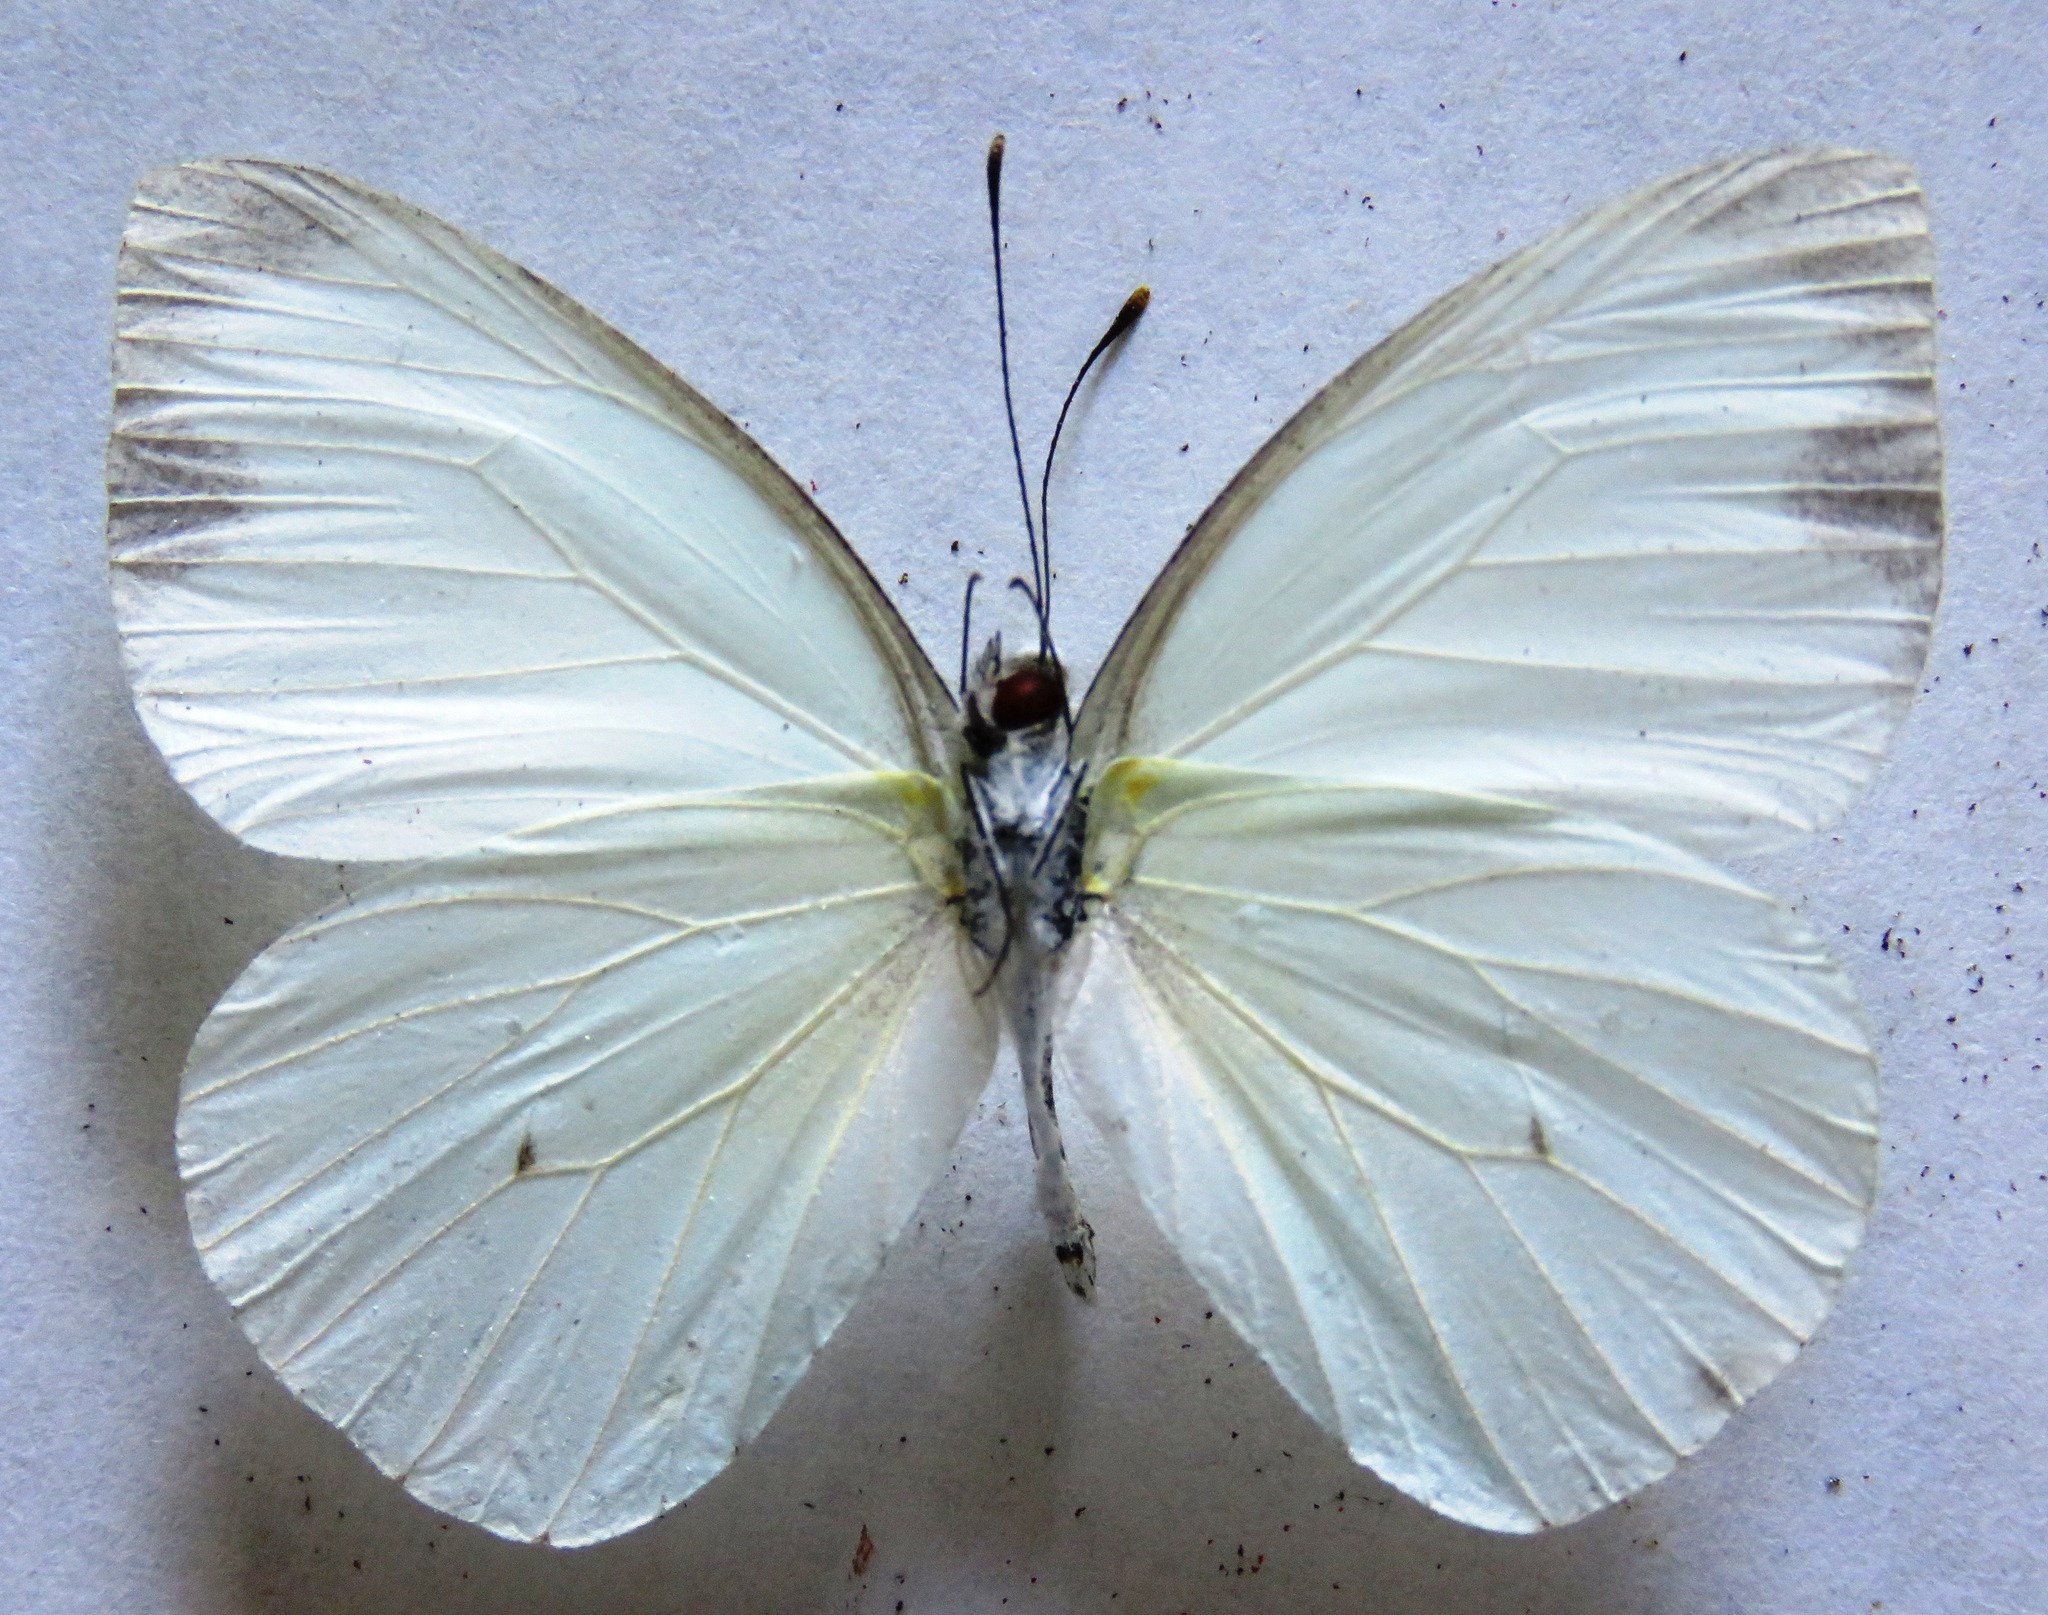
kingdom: Animalia
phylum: Arthropoda
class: Insecta
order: Lepidoptera
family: Pieridae
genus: Leptophobia
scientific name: Leptophobia aripa
